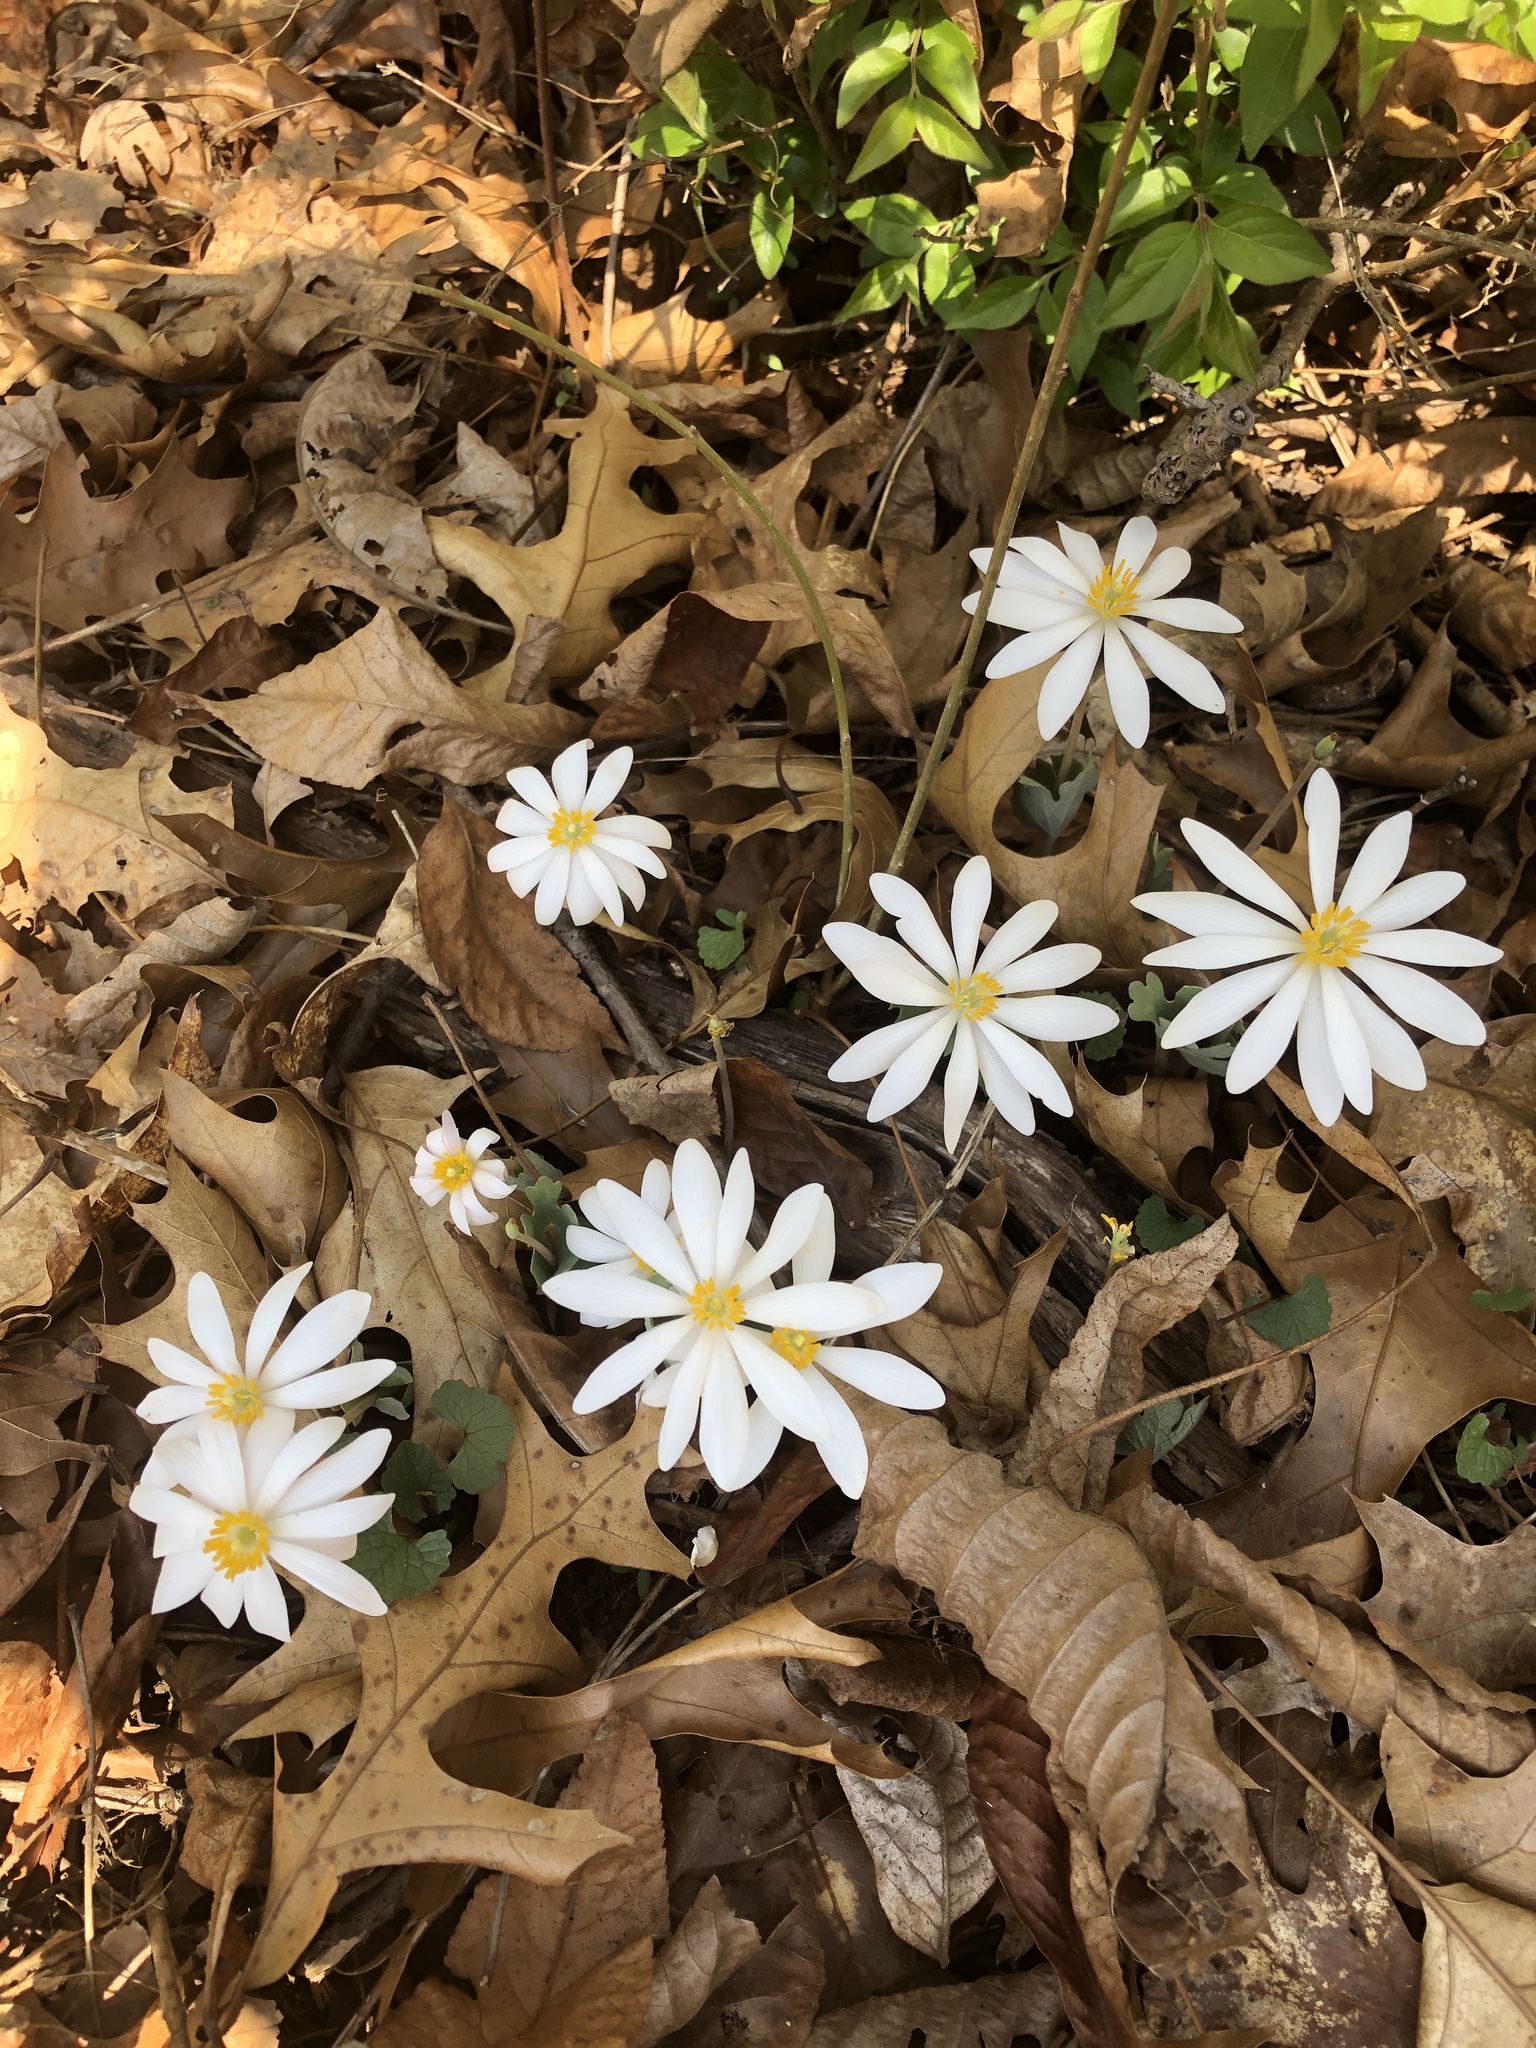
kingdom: Plantae
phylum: Tracheophyta
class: Magnoliopsida
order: Ranunculales
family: Papaveraceae
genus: Sanguinaria
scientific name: Sanguinaria canadensis
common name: Bloodroot
